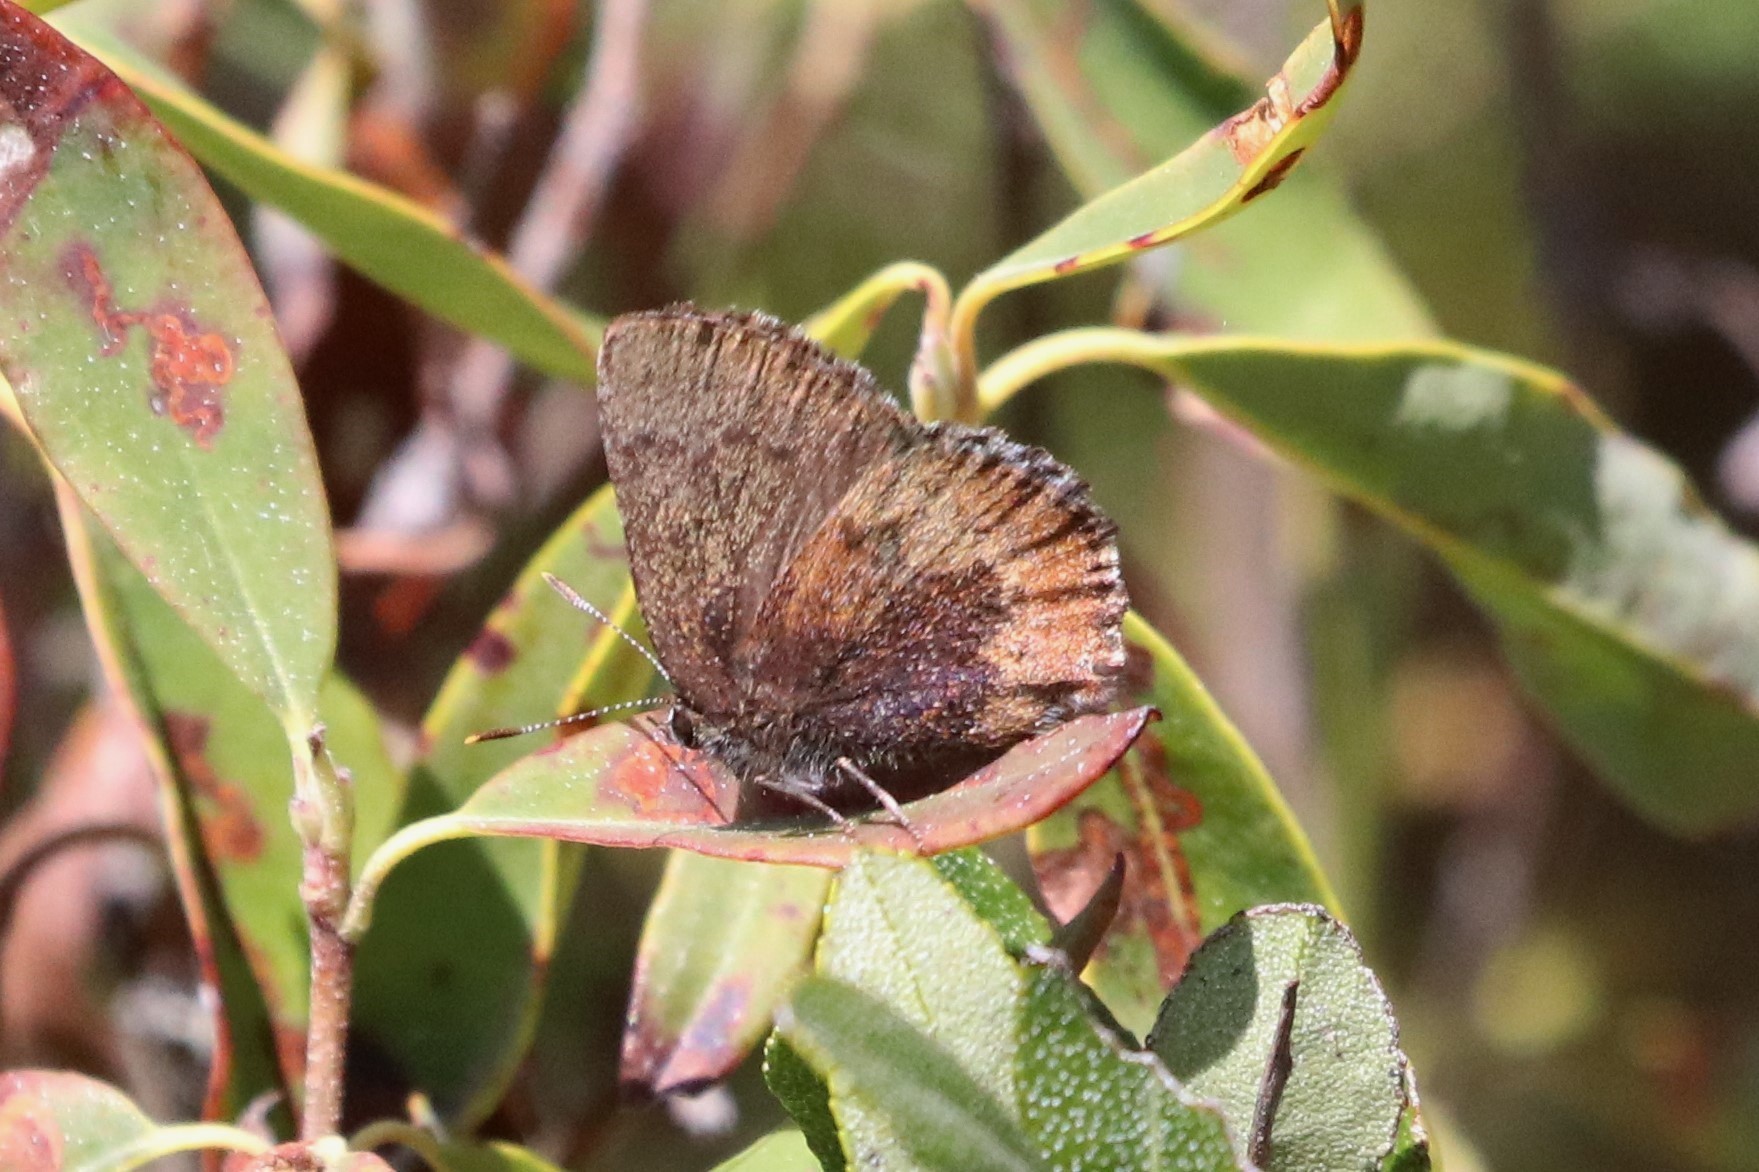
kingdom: Animalia
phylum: Arthropoda
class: Insecta
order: Lepidoptera
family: Lycaenidae
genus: Incisalia
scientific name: Incisalia irioides
